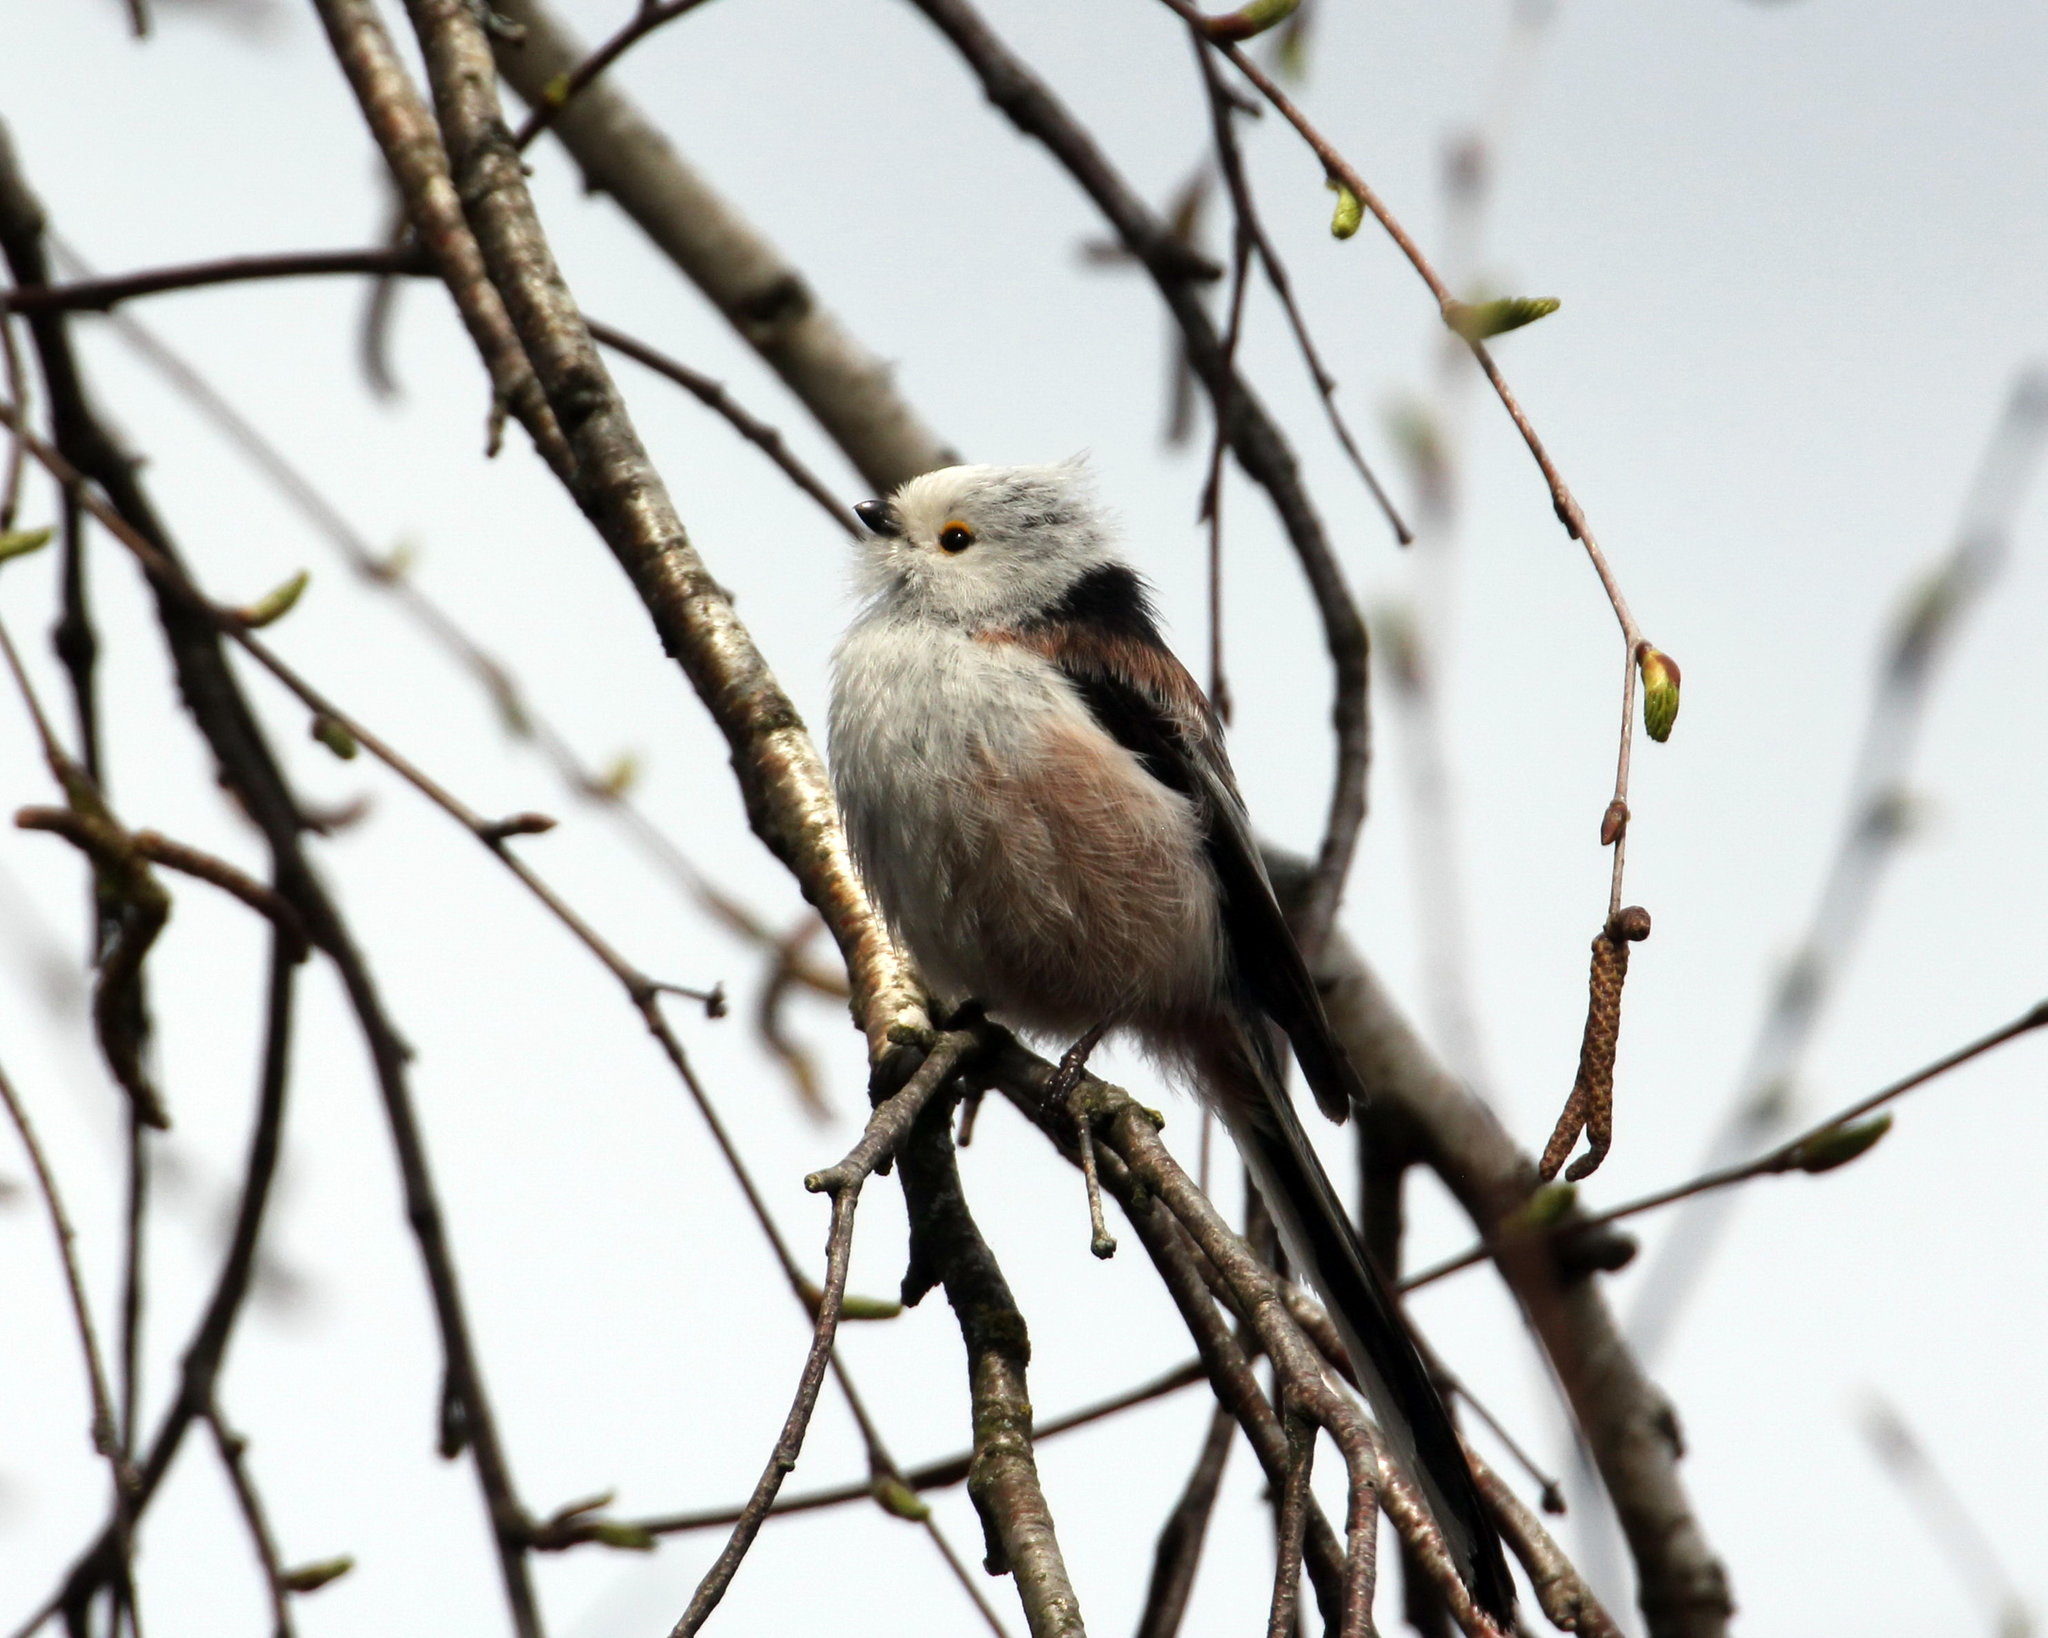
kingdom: Animalia
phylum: Chordata
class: Aves
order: Passeriformes
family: Aegithalidae
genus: Aegithalos
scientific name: Aegithalos caudatus
